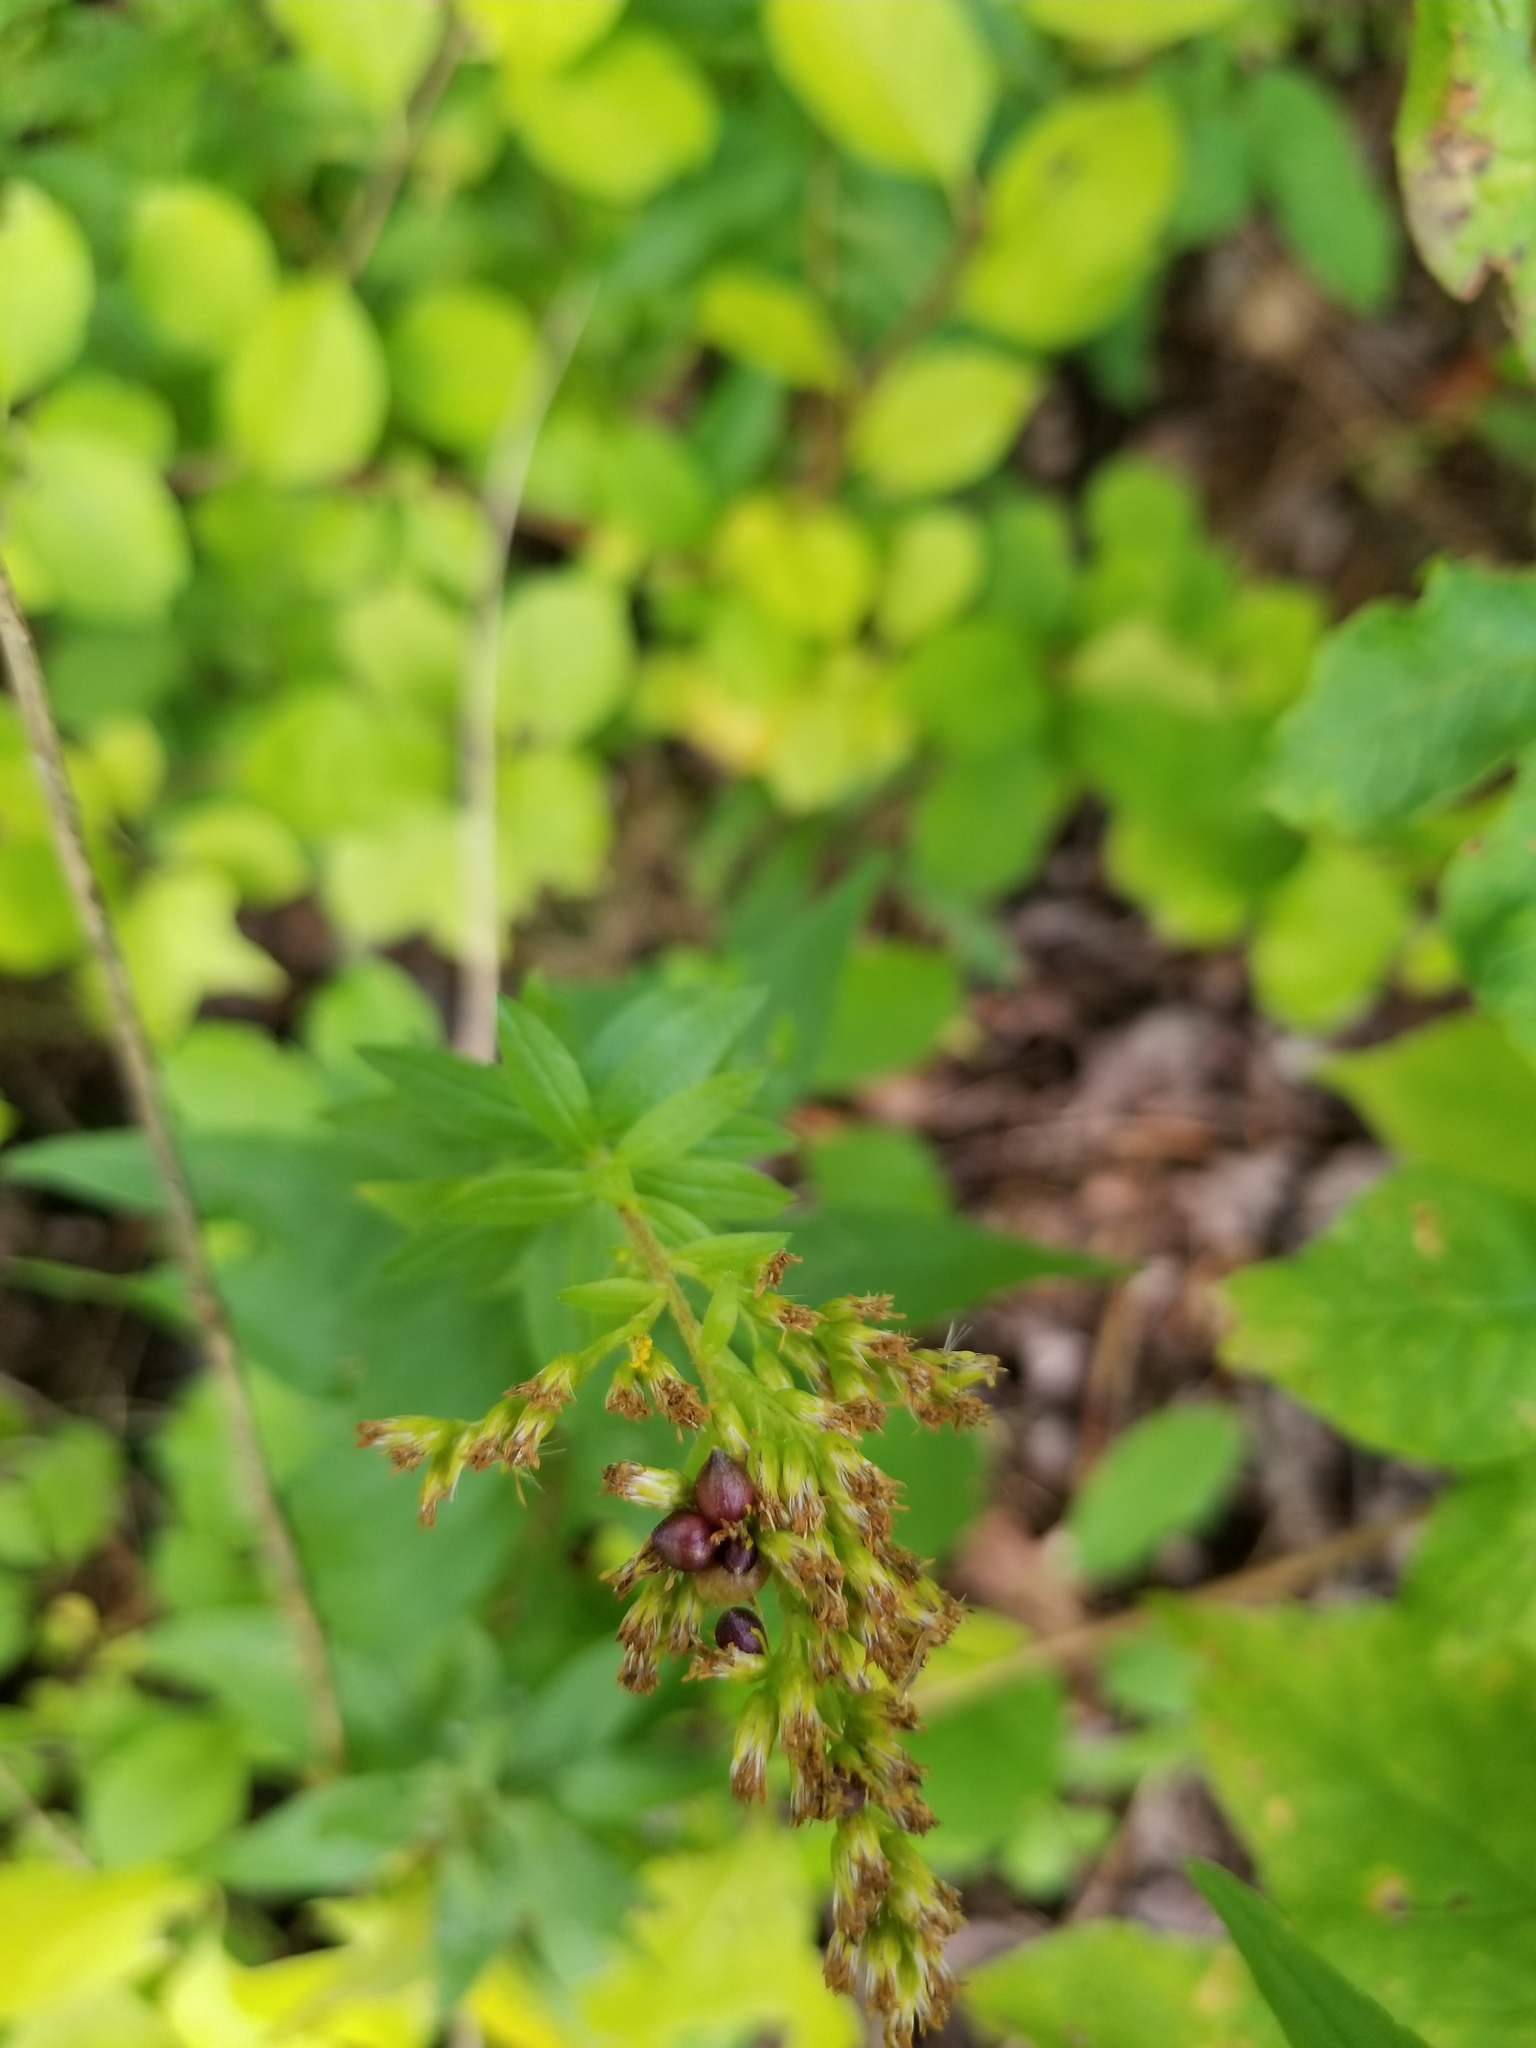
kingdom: Animalia
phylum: Arthropoda
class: Insecta
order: Diptera
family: Cecidomyiidae
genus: Schizomyia
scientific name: Schizomyia racemicola
